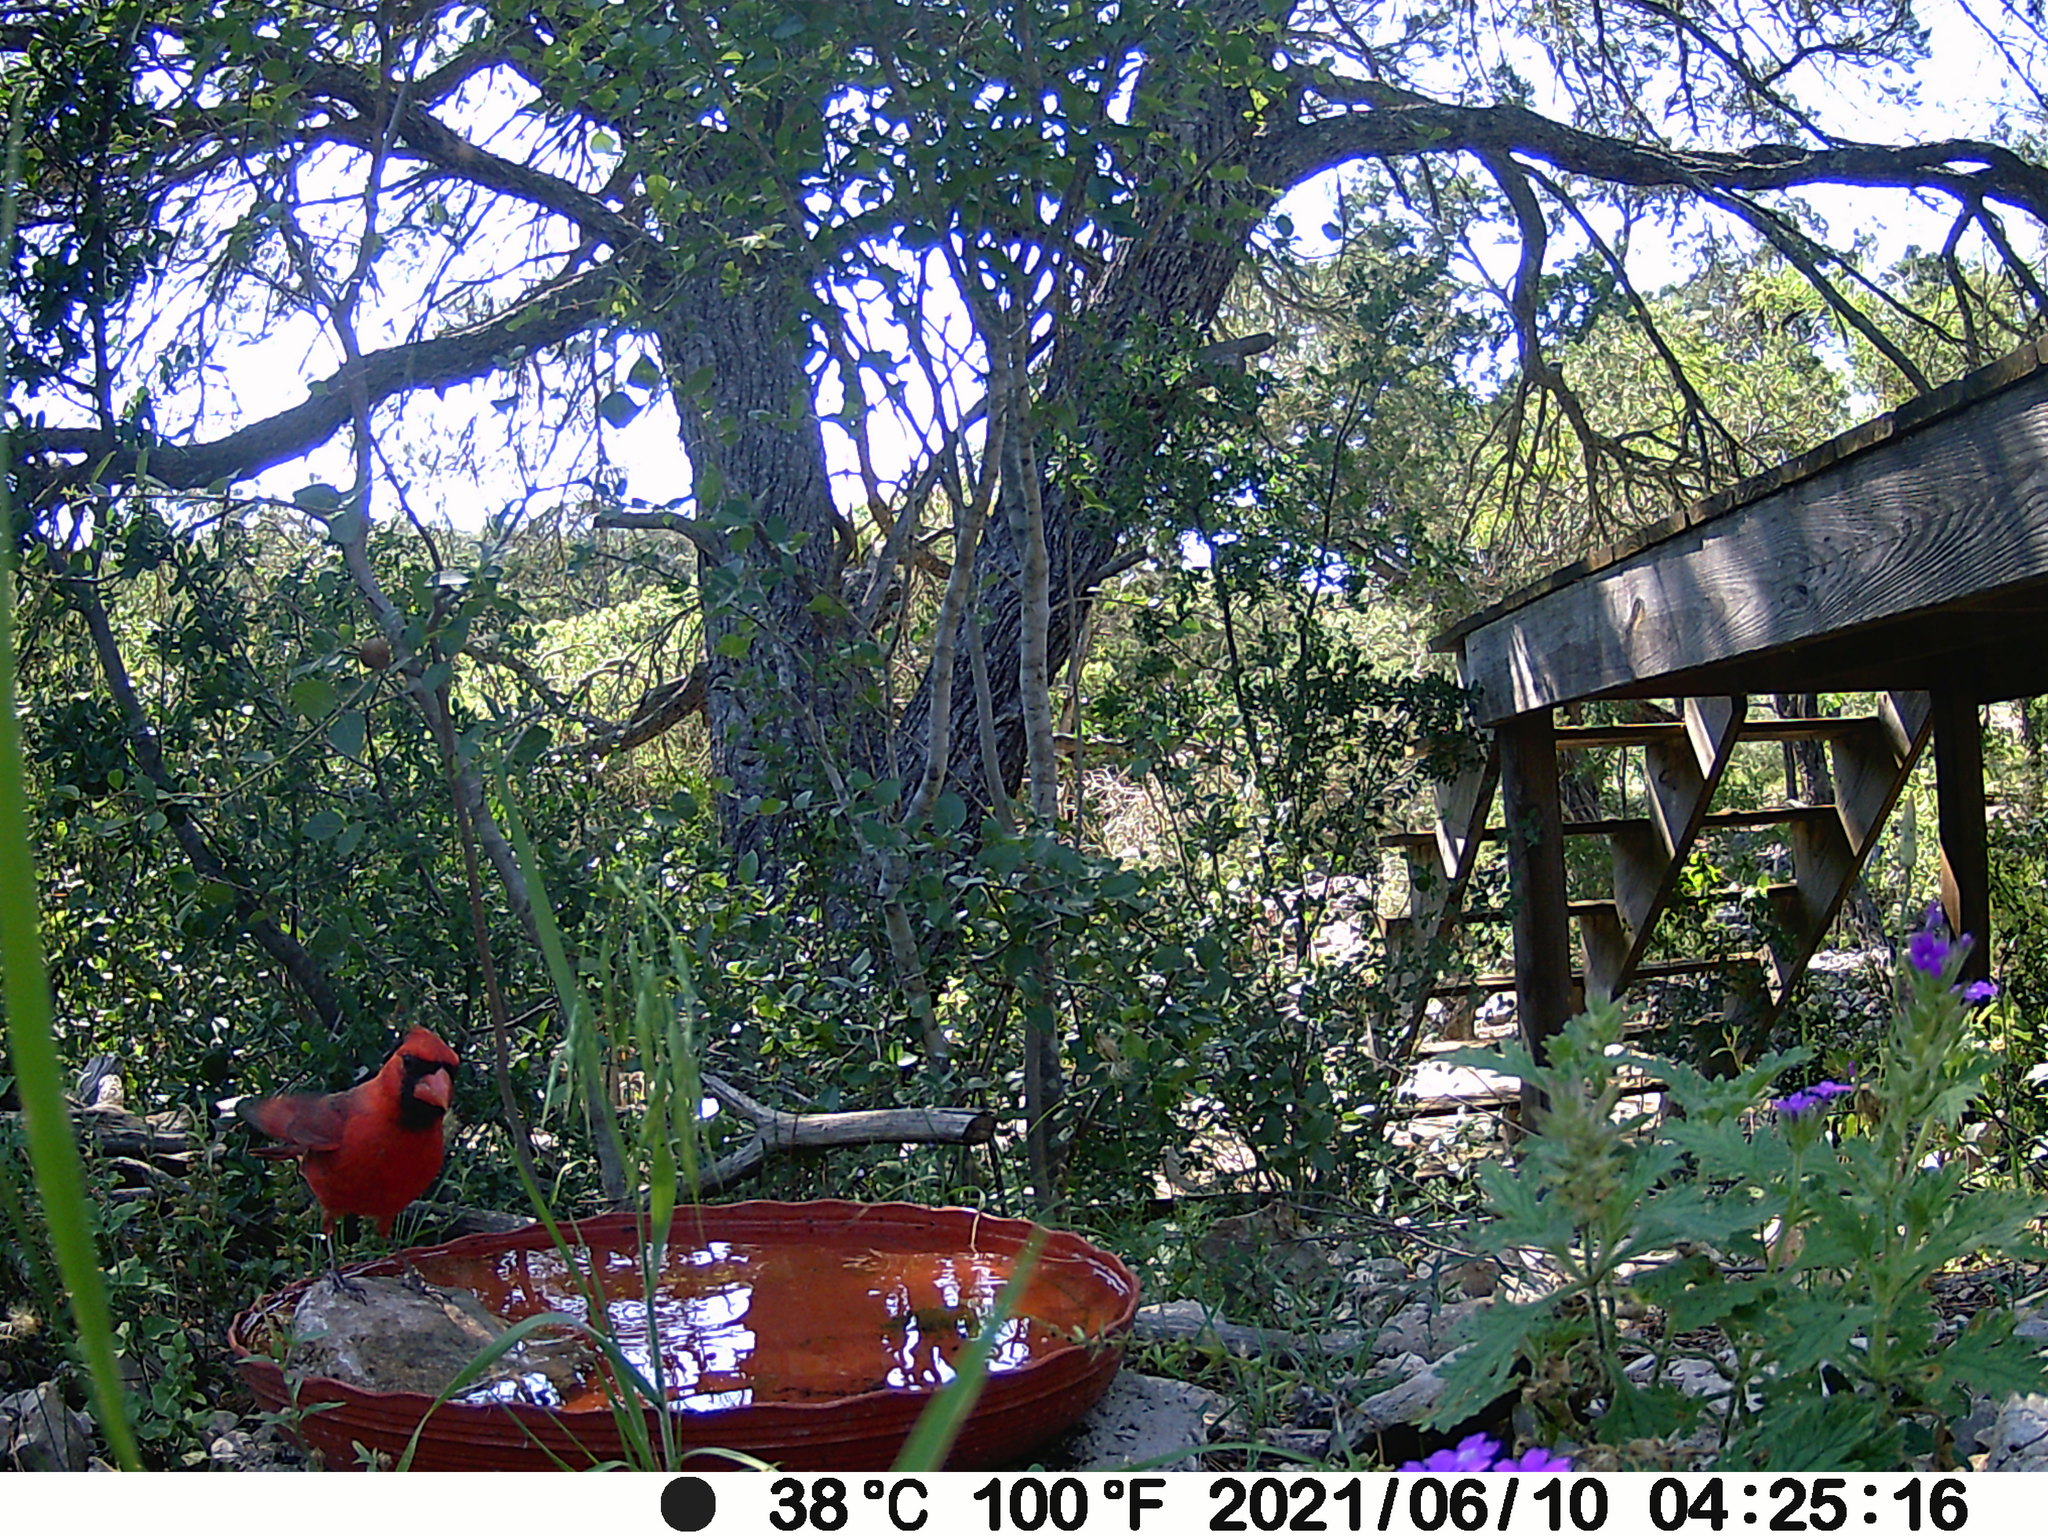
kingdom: Animalia
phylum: Chordata
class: Aves
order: Passeriformes
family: Cardinalidae
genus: Cardinalis
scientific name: Cardinalis cardinalis
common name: Northern cardinal
